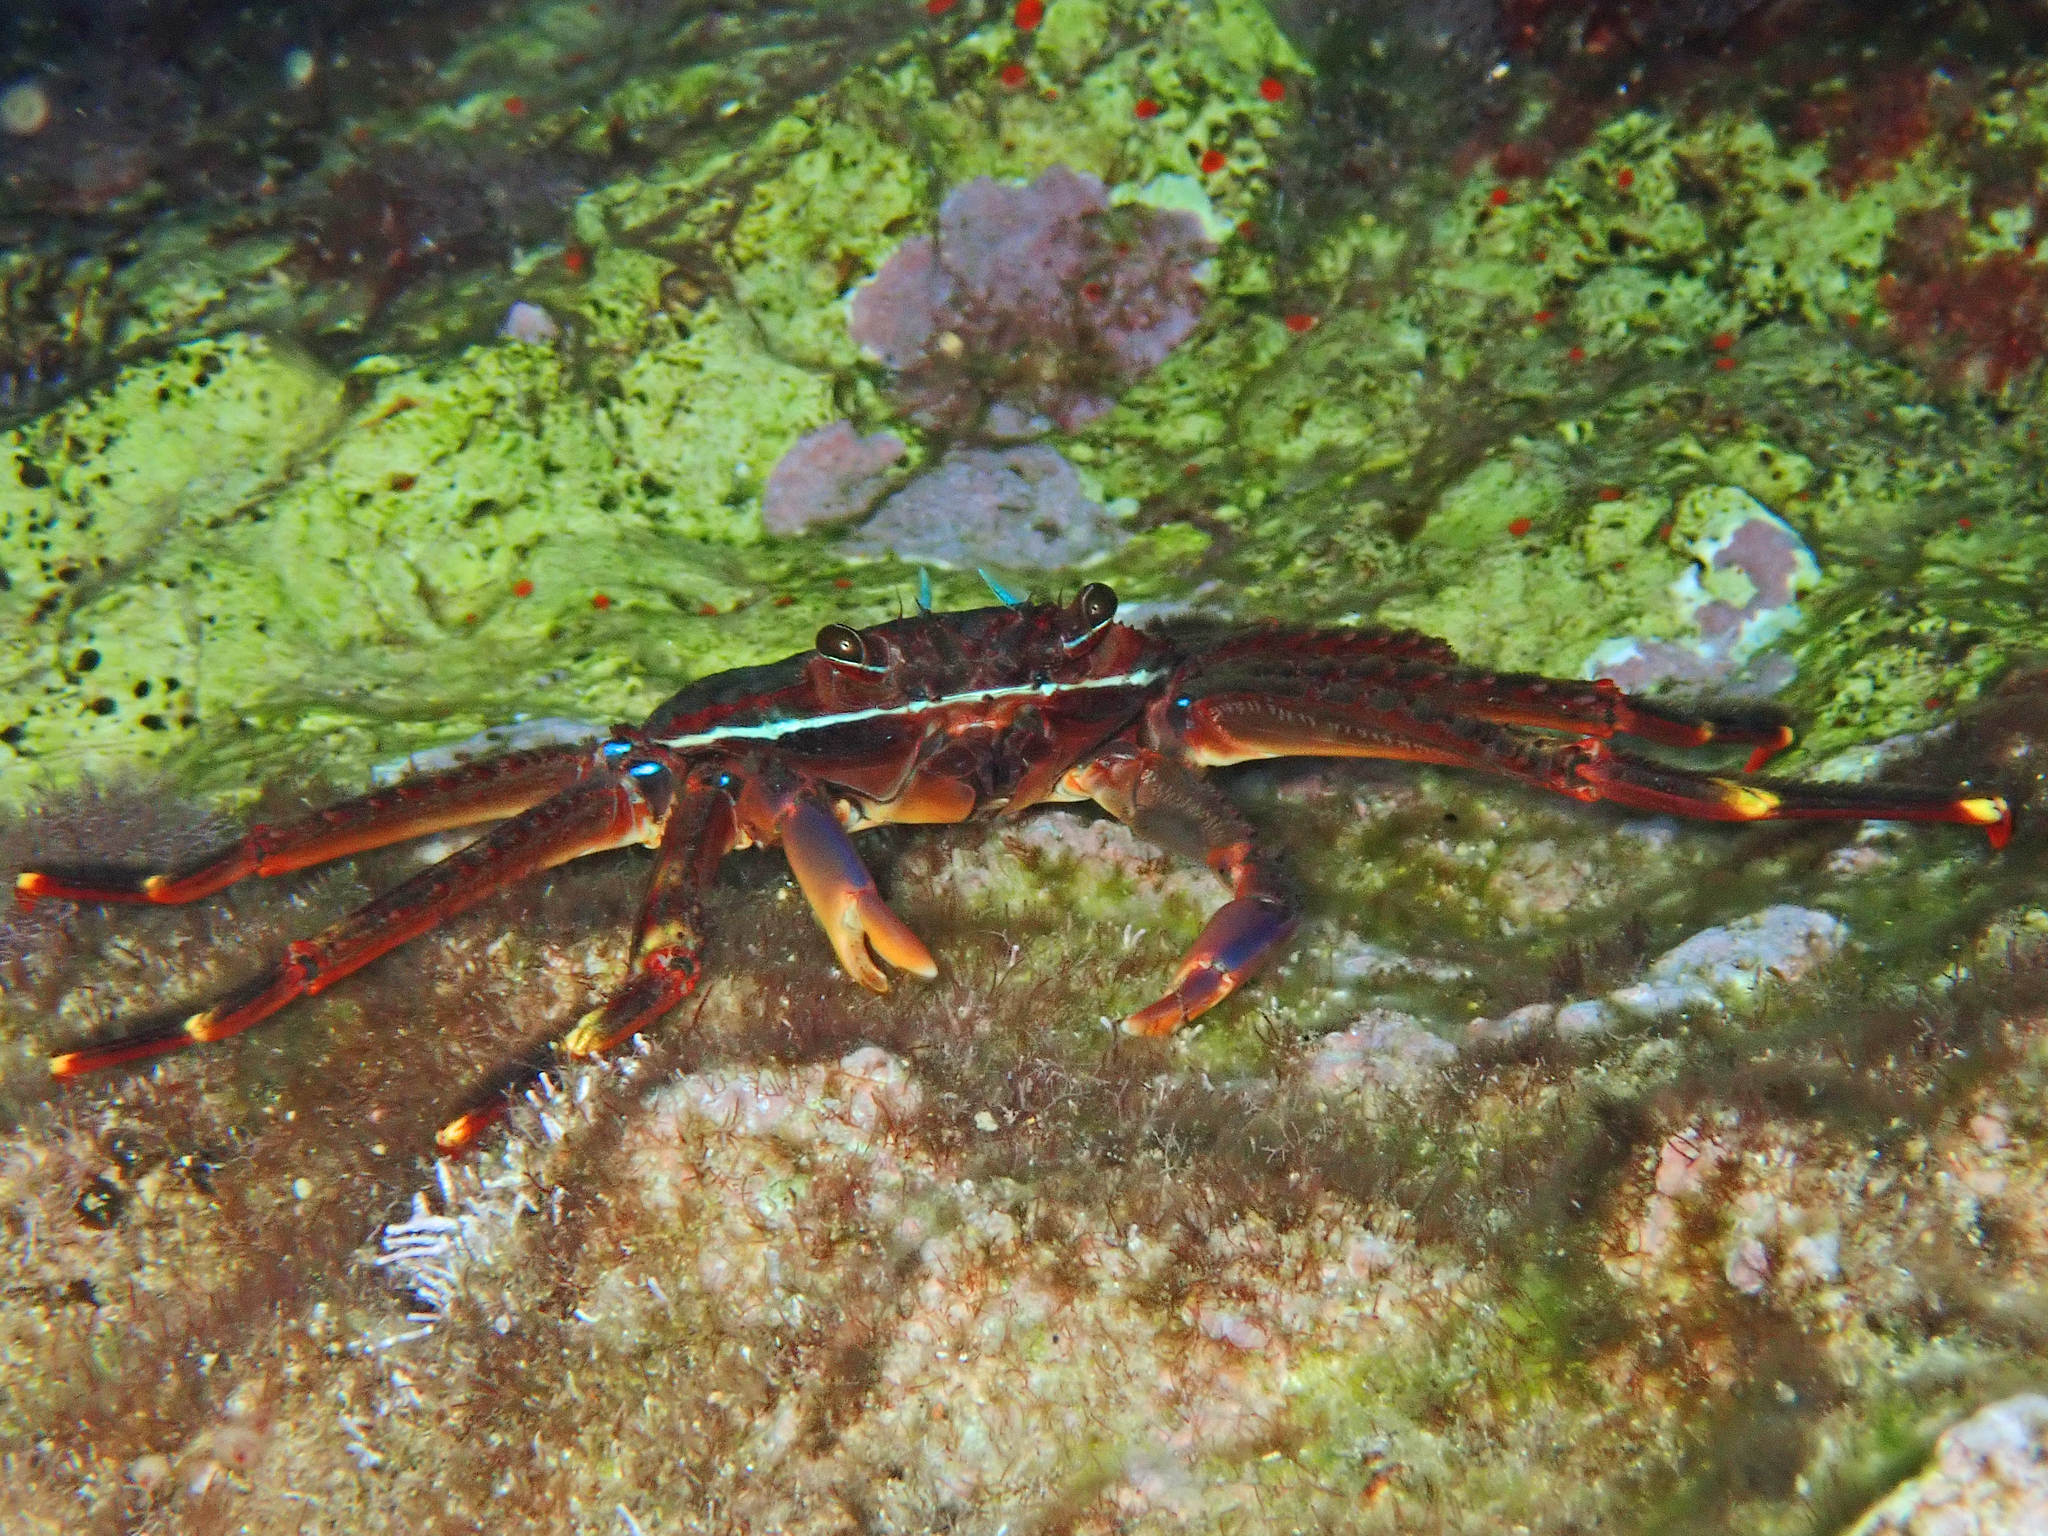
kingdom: Animalia
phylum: Arthropoda
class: Malacostraca
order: Decapoda
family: Percnidae
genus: Percnon
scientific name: Percnon gibbesi
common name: Nimble spray crab
